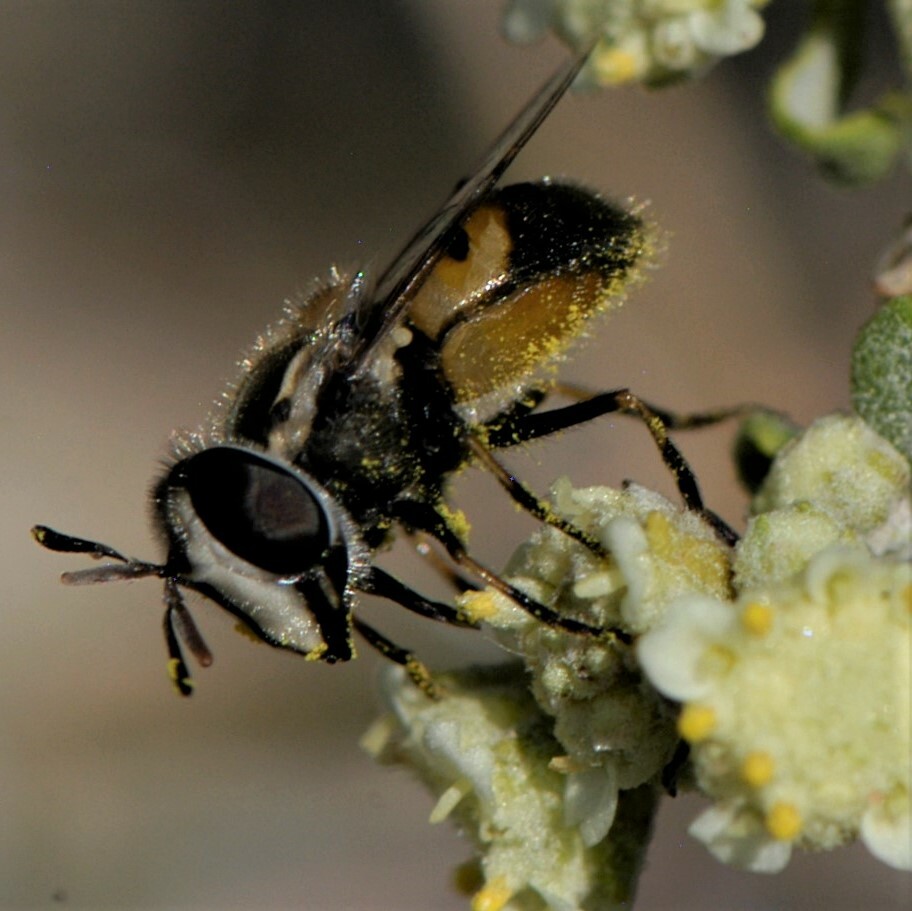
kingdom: Animalia
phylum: Arthropoda
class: Insecta
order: Diptera
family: Syrphidae
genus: Copestylum
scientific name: Copestylum lentum
